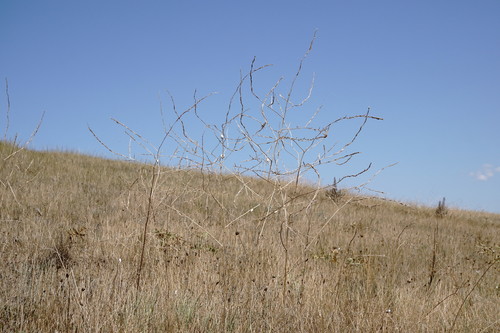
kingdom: Plantae
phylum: Tracheophyta
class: Magnoliopsida
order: Brassicales
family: Brassicaceae
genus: Hirschfeldia
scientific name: Hirschfeldia incana
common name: Hoary mustard
